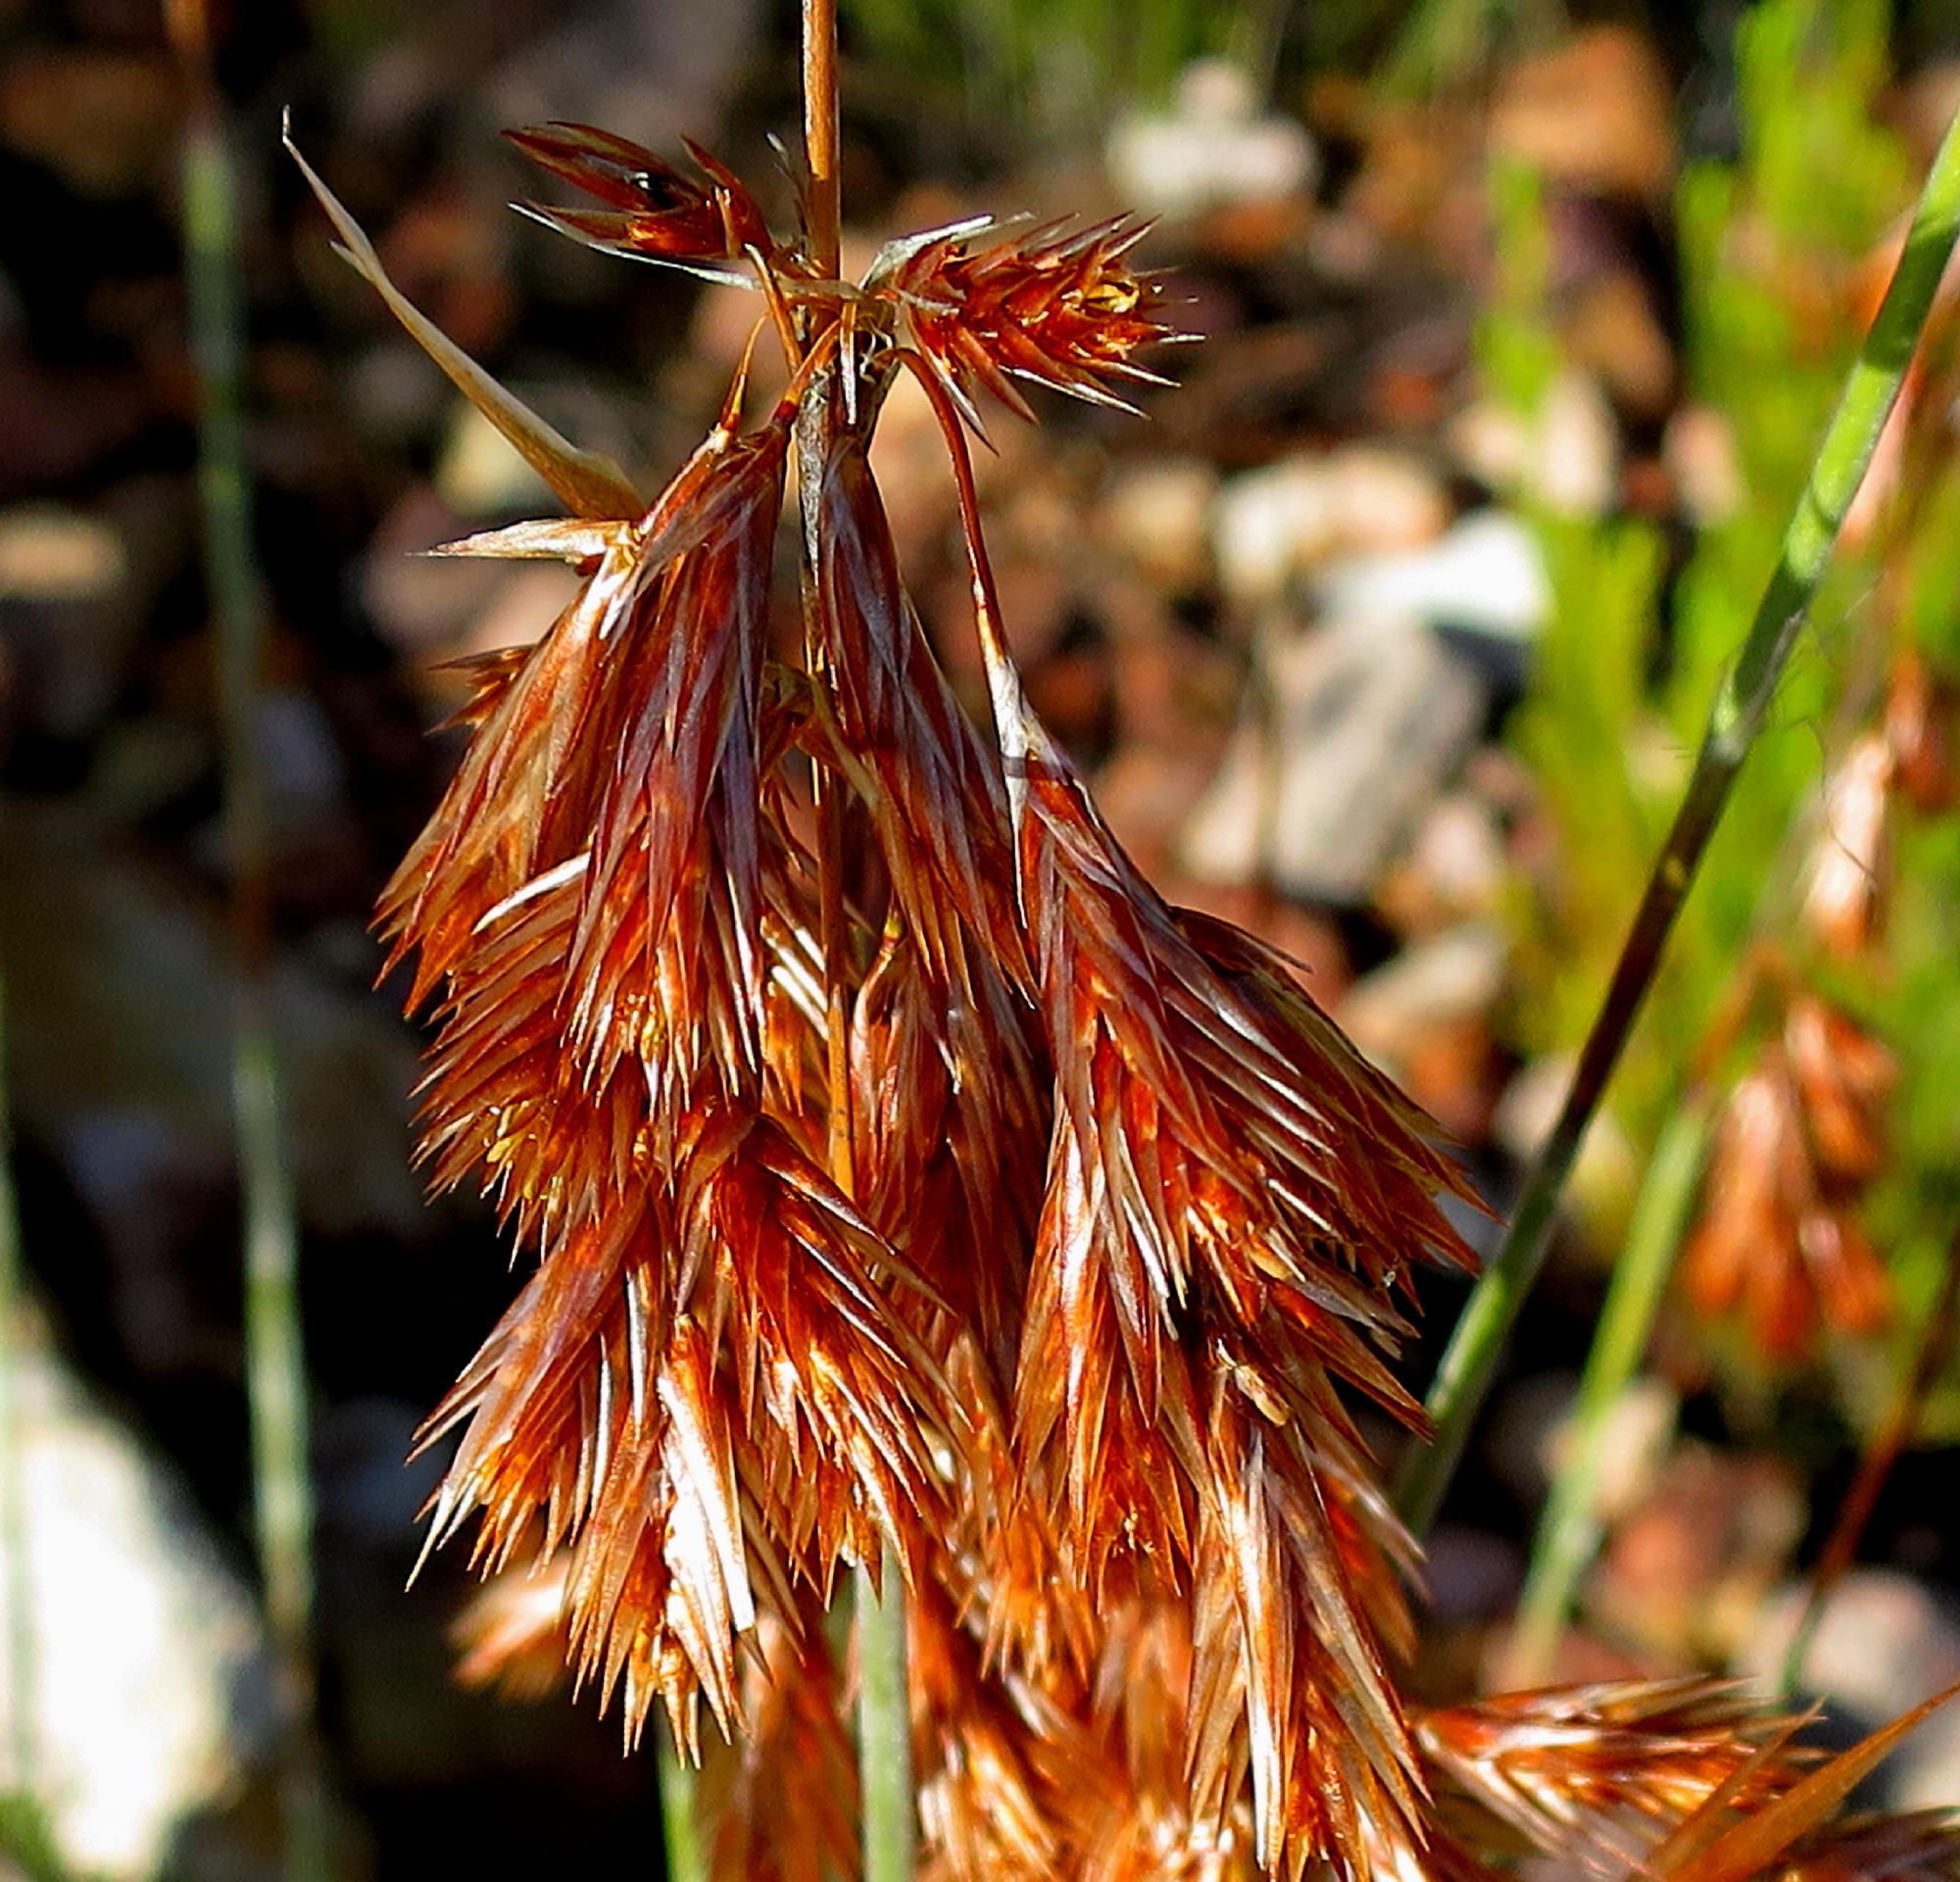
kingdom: Plantae
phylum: Tracheophyta
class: Liliopsida
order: Poales
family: Restionaceae
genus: Thamnochortus
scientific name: Thamnochortus rigidus
